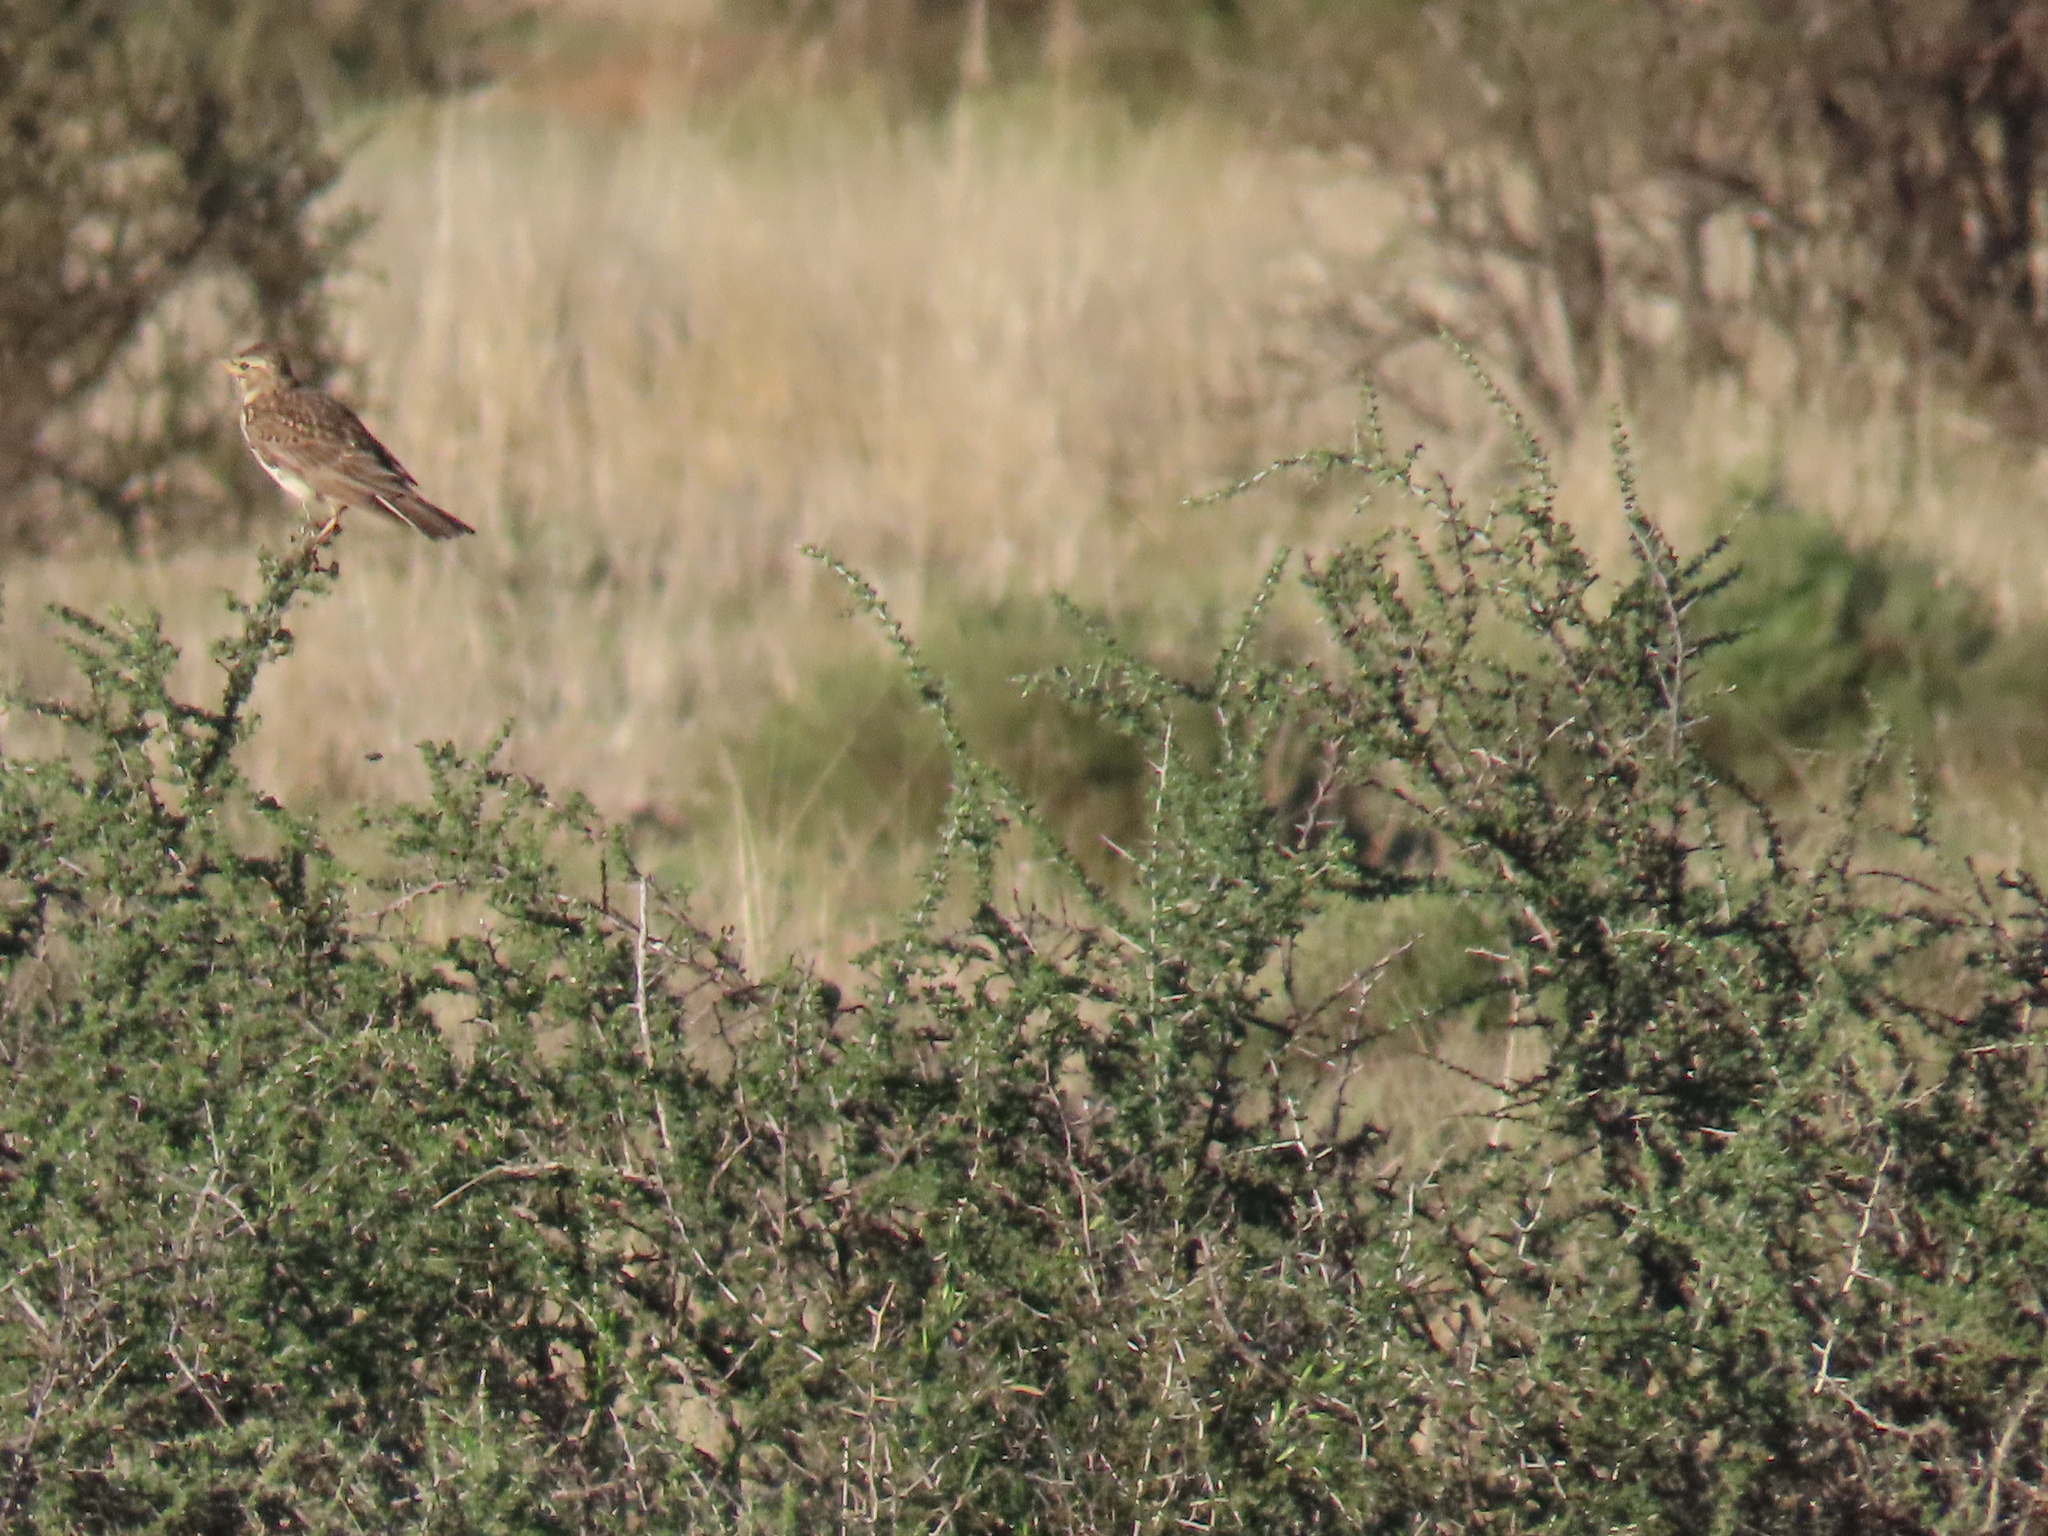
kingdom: Animalia
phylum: Chordata
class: Aves
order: Passeriformes
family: Alaudidae
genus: Galerida
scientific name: Galerida magnirostris
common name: Large-billed lark
